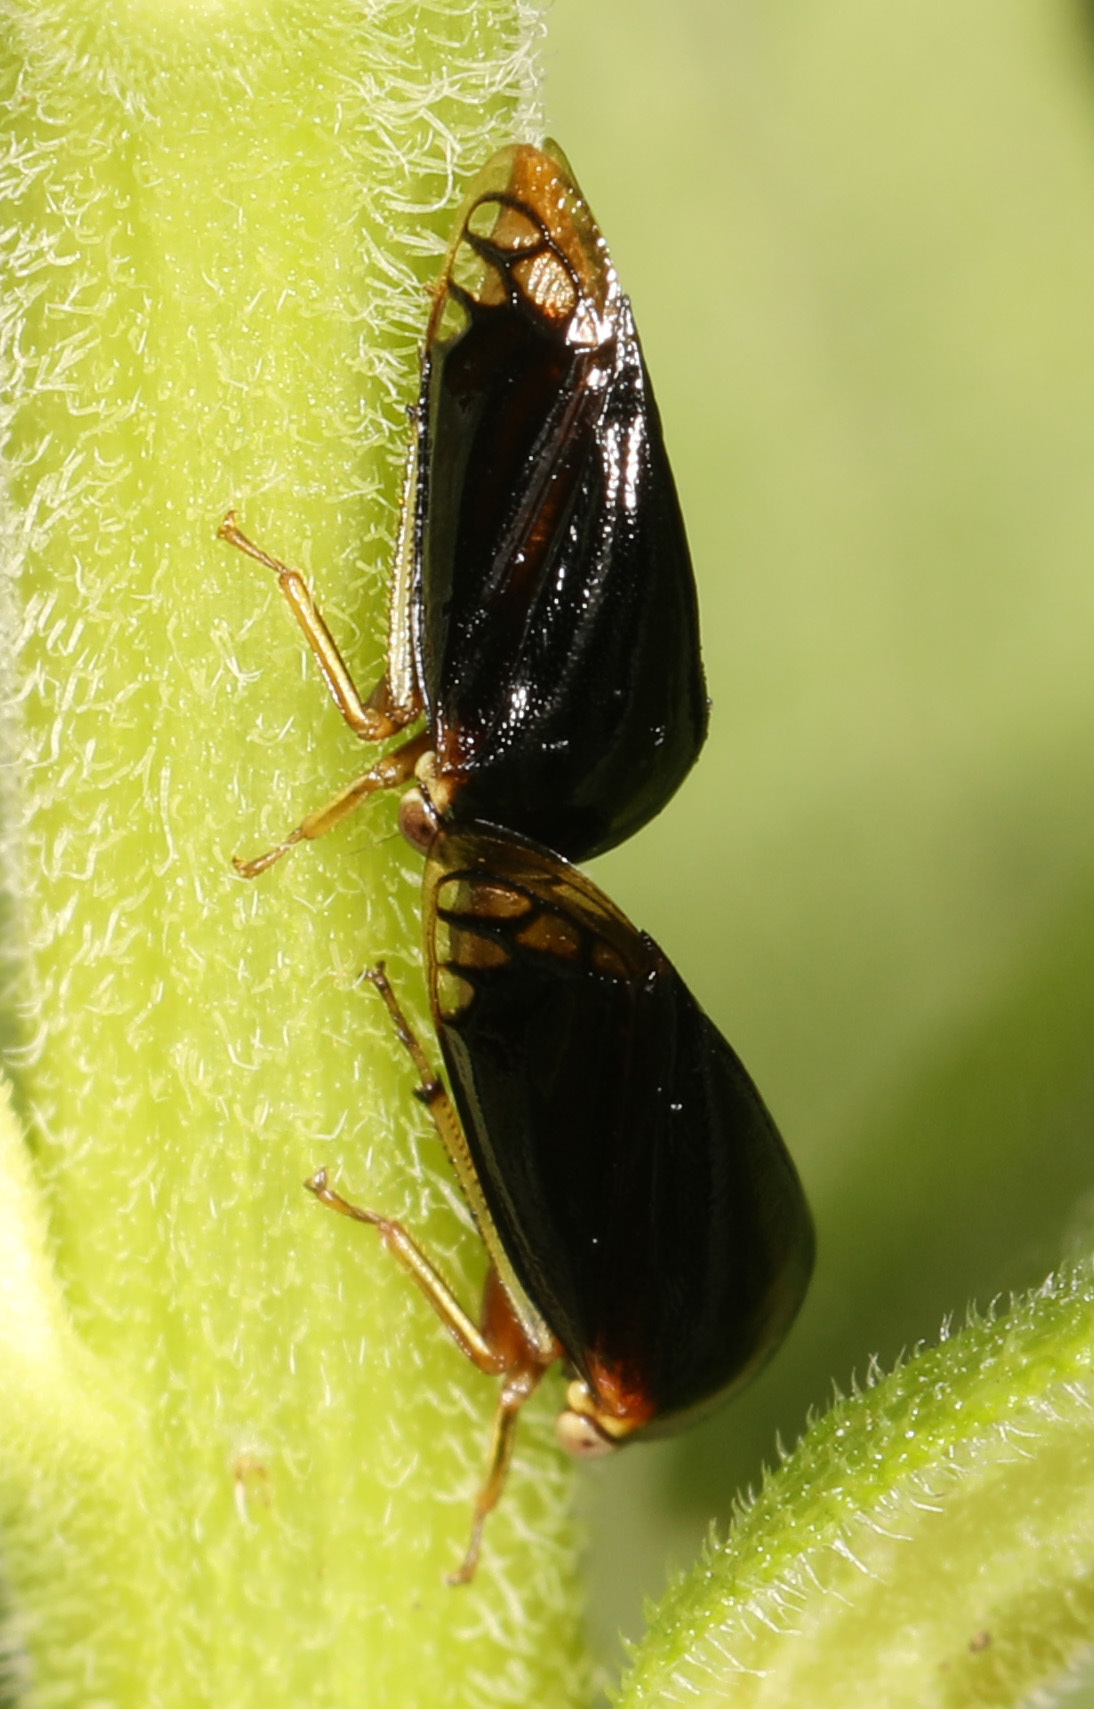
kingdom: Animalia
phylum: Arthropoda
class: Insecta
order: Hemiptera
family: Membracidae
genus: Acutalis
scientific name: Acutalis tartarea
